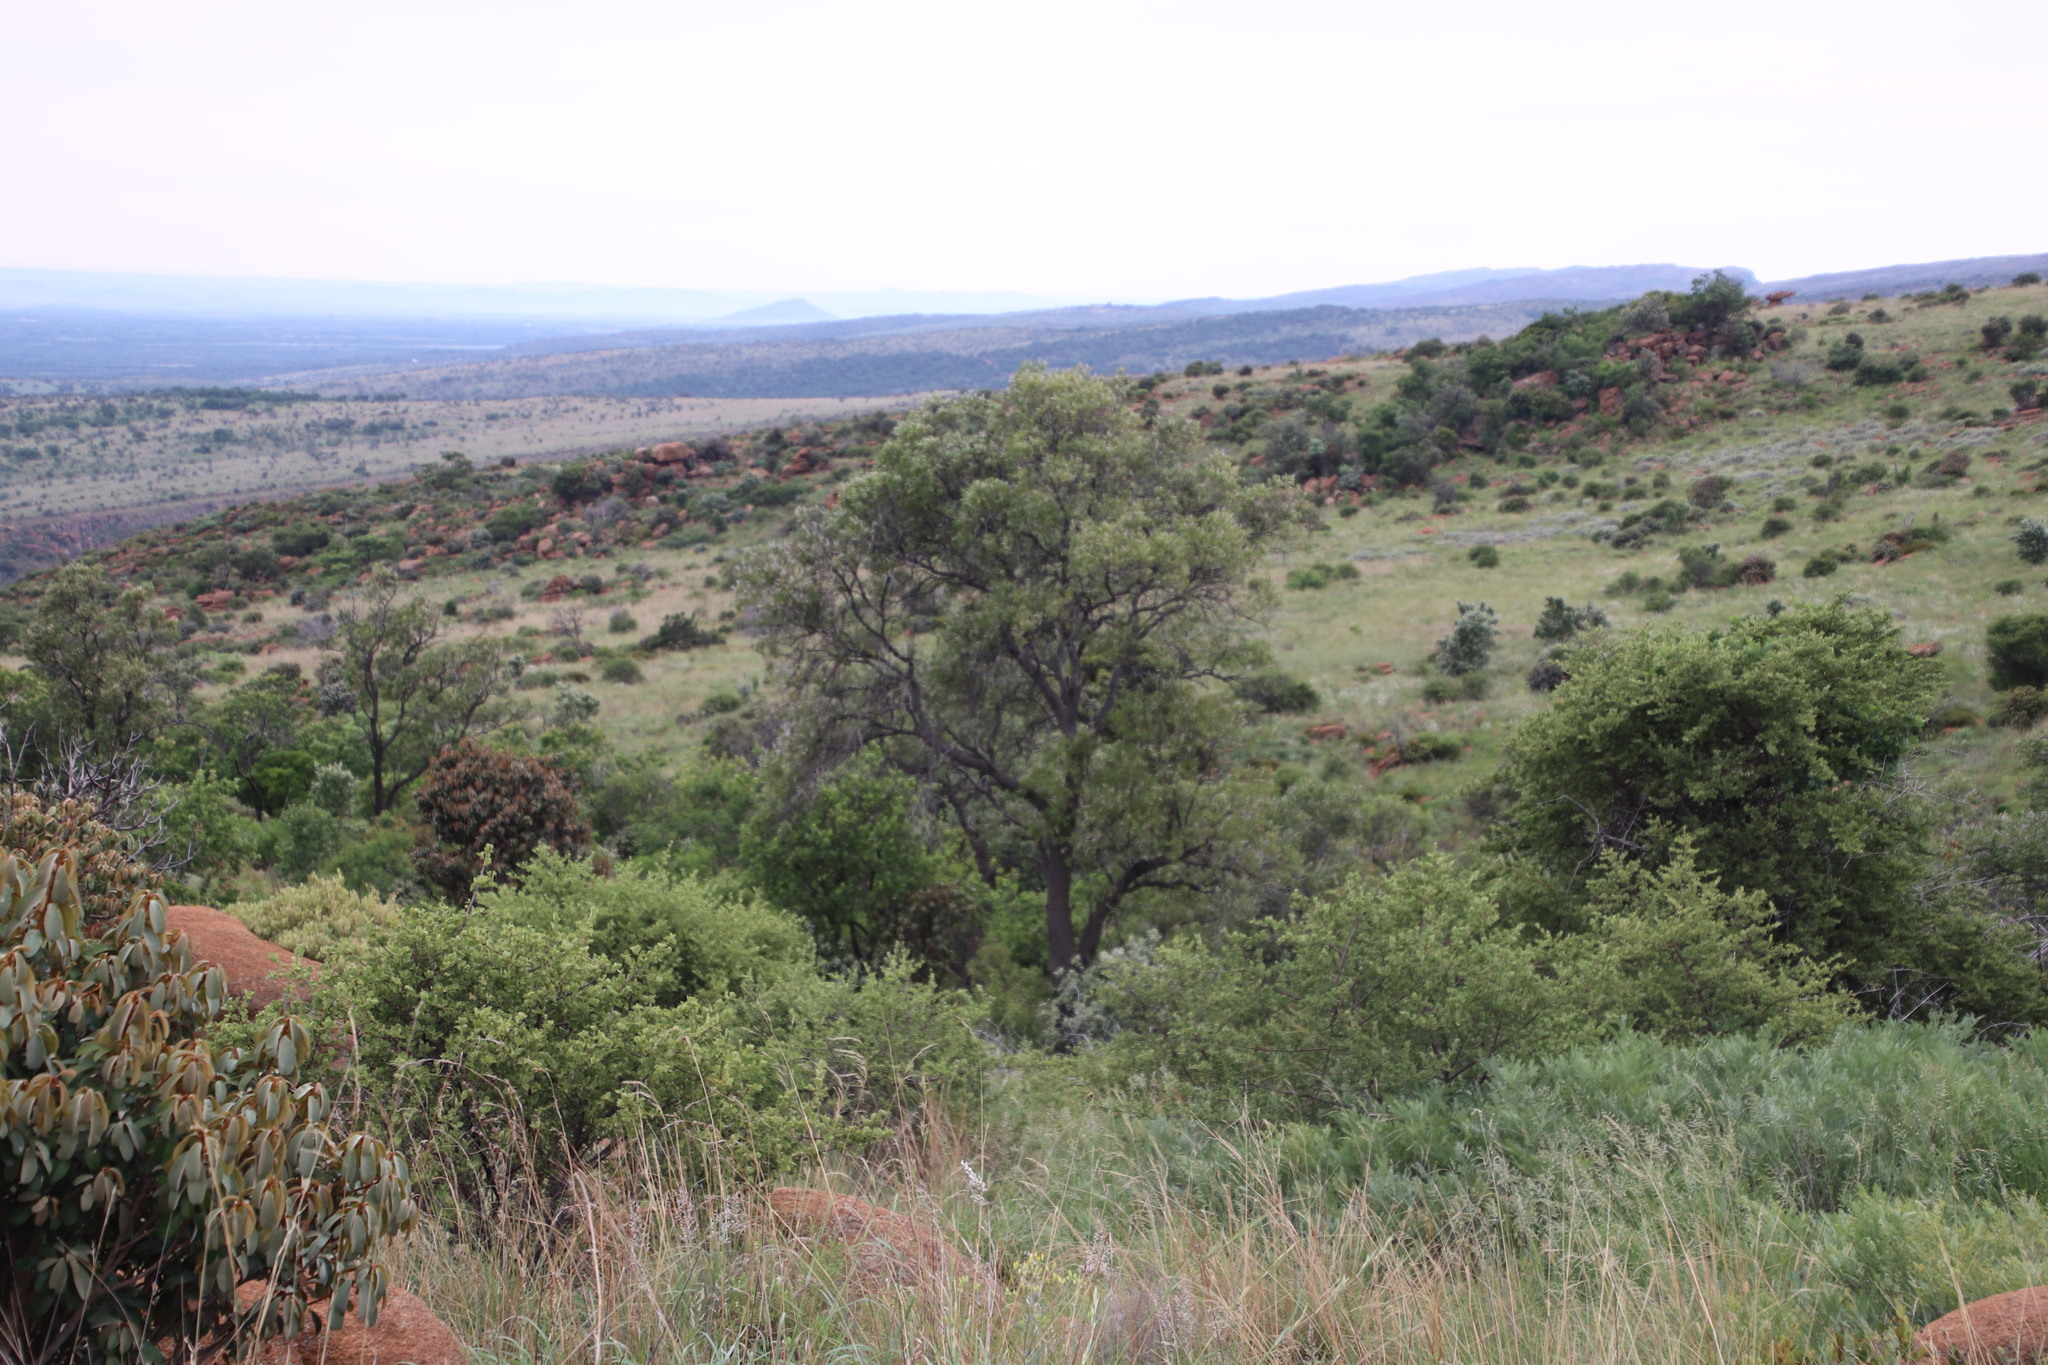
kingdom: Plantae
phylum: Tracheophyta
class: Magnoliopsida
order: Proteales
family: Proteaceae
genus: Faurea
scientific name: Faurea saligna
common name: African bean
